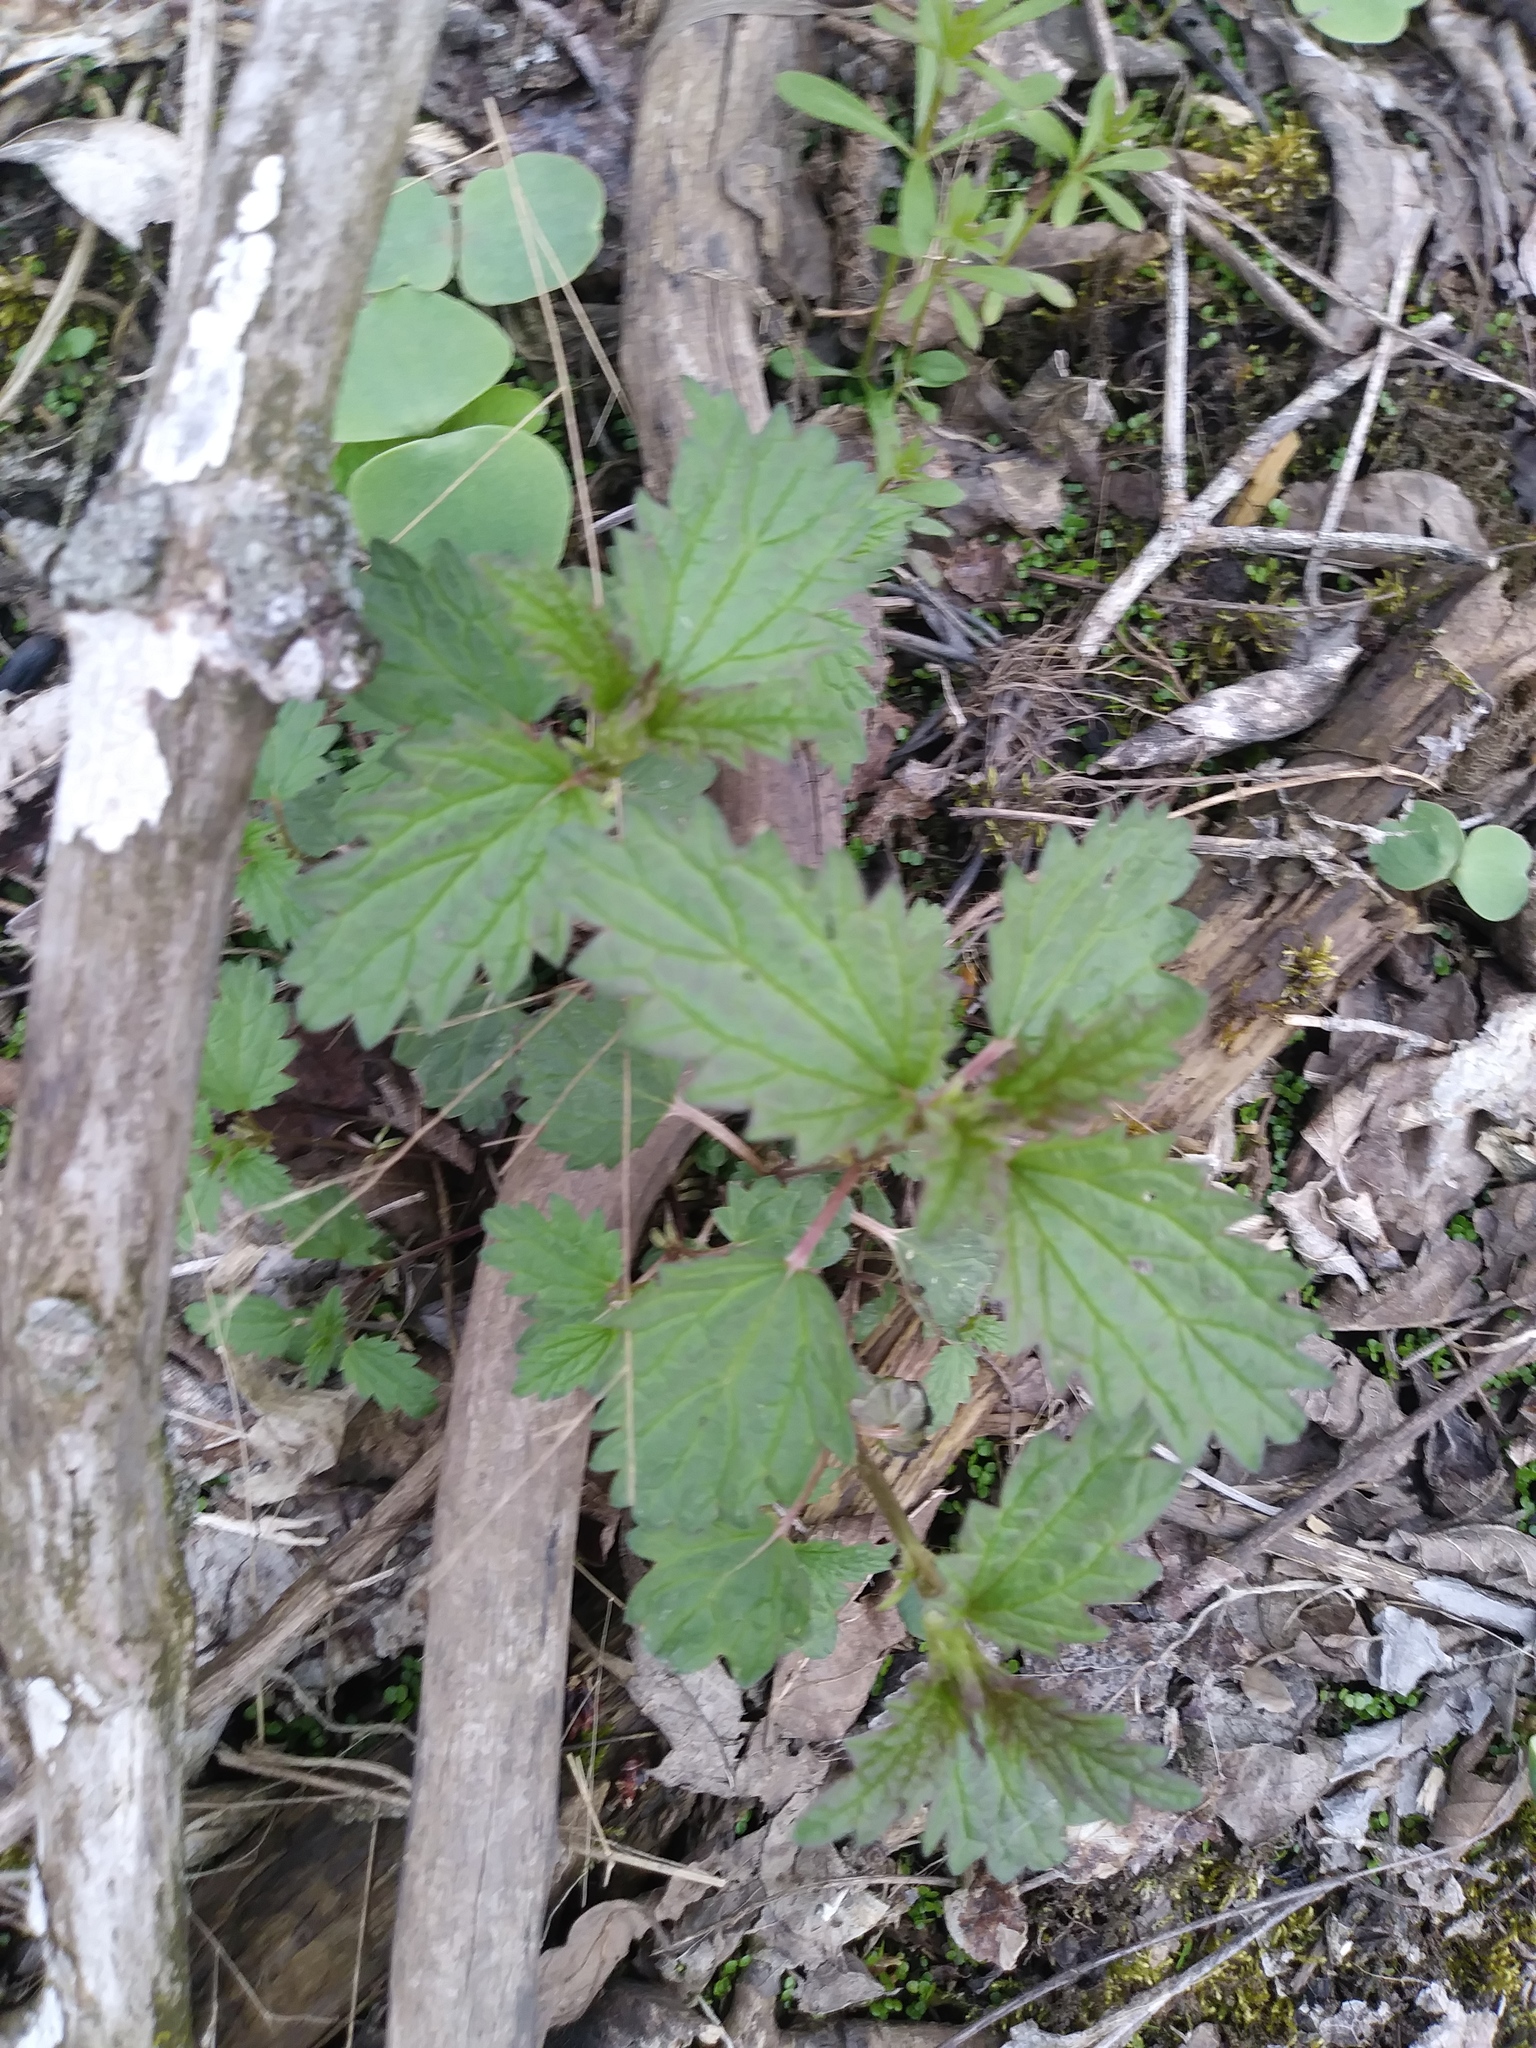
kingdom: Plantae
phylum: Tracheophyta
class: Magnoliopsida
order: Rosales
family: Urticaceae
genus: Urtica
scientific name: Urtica dioica
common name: Common nettle
